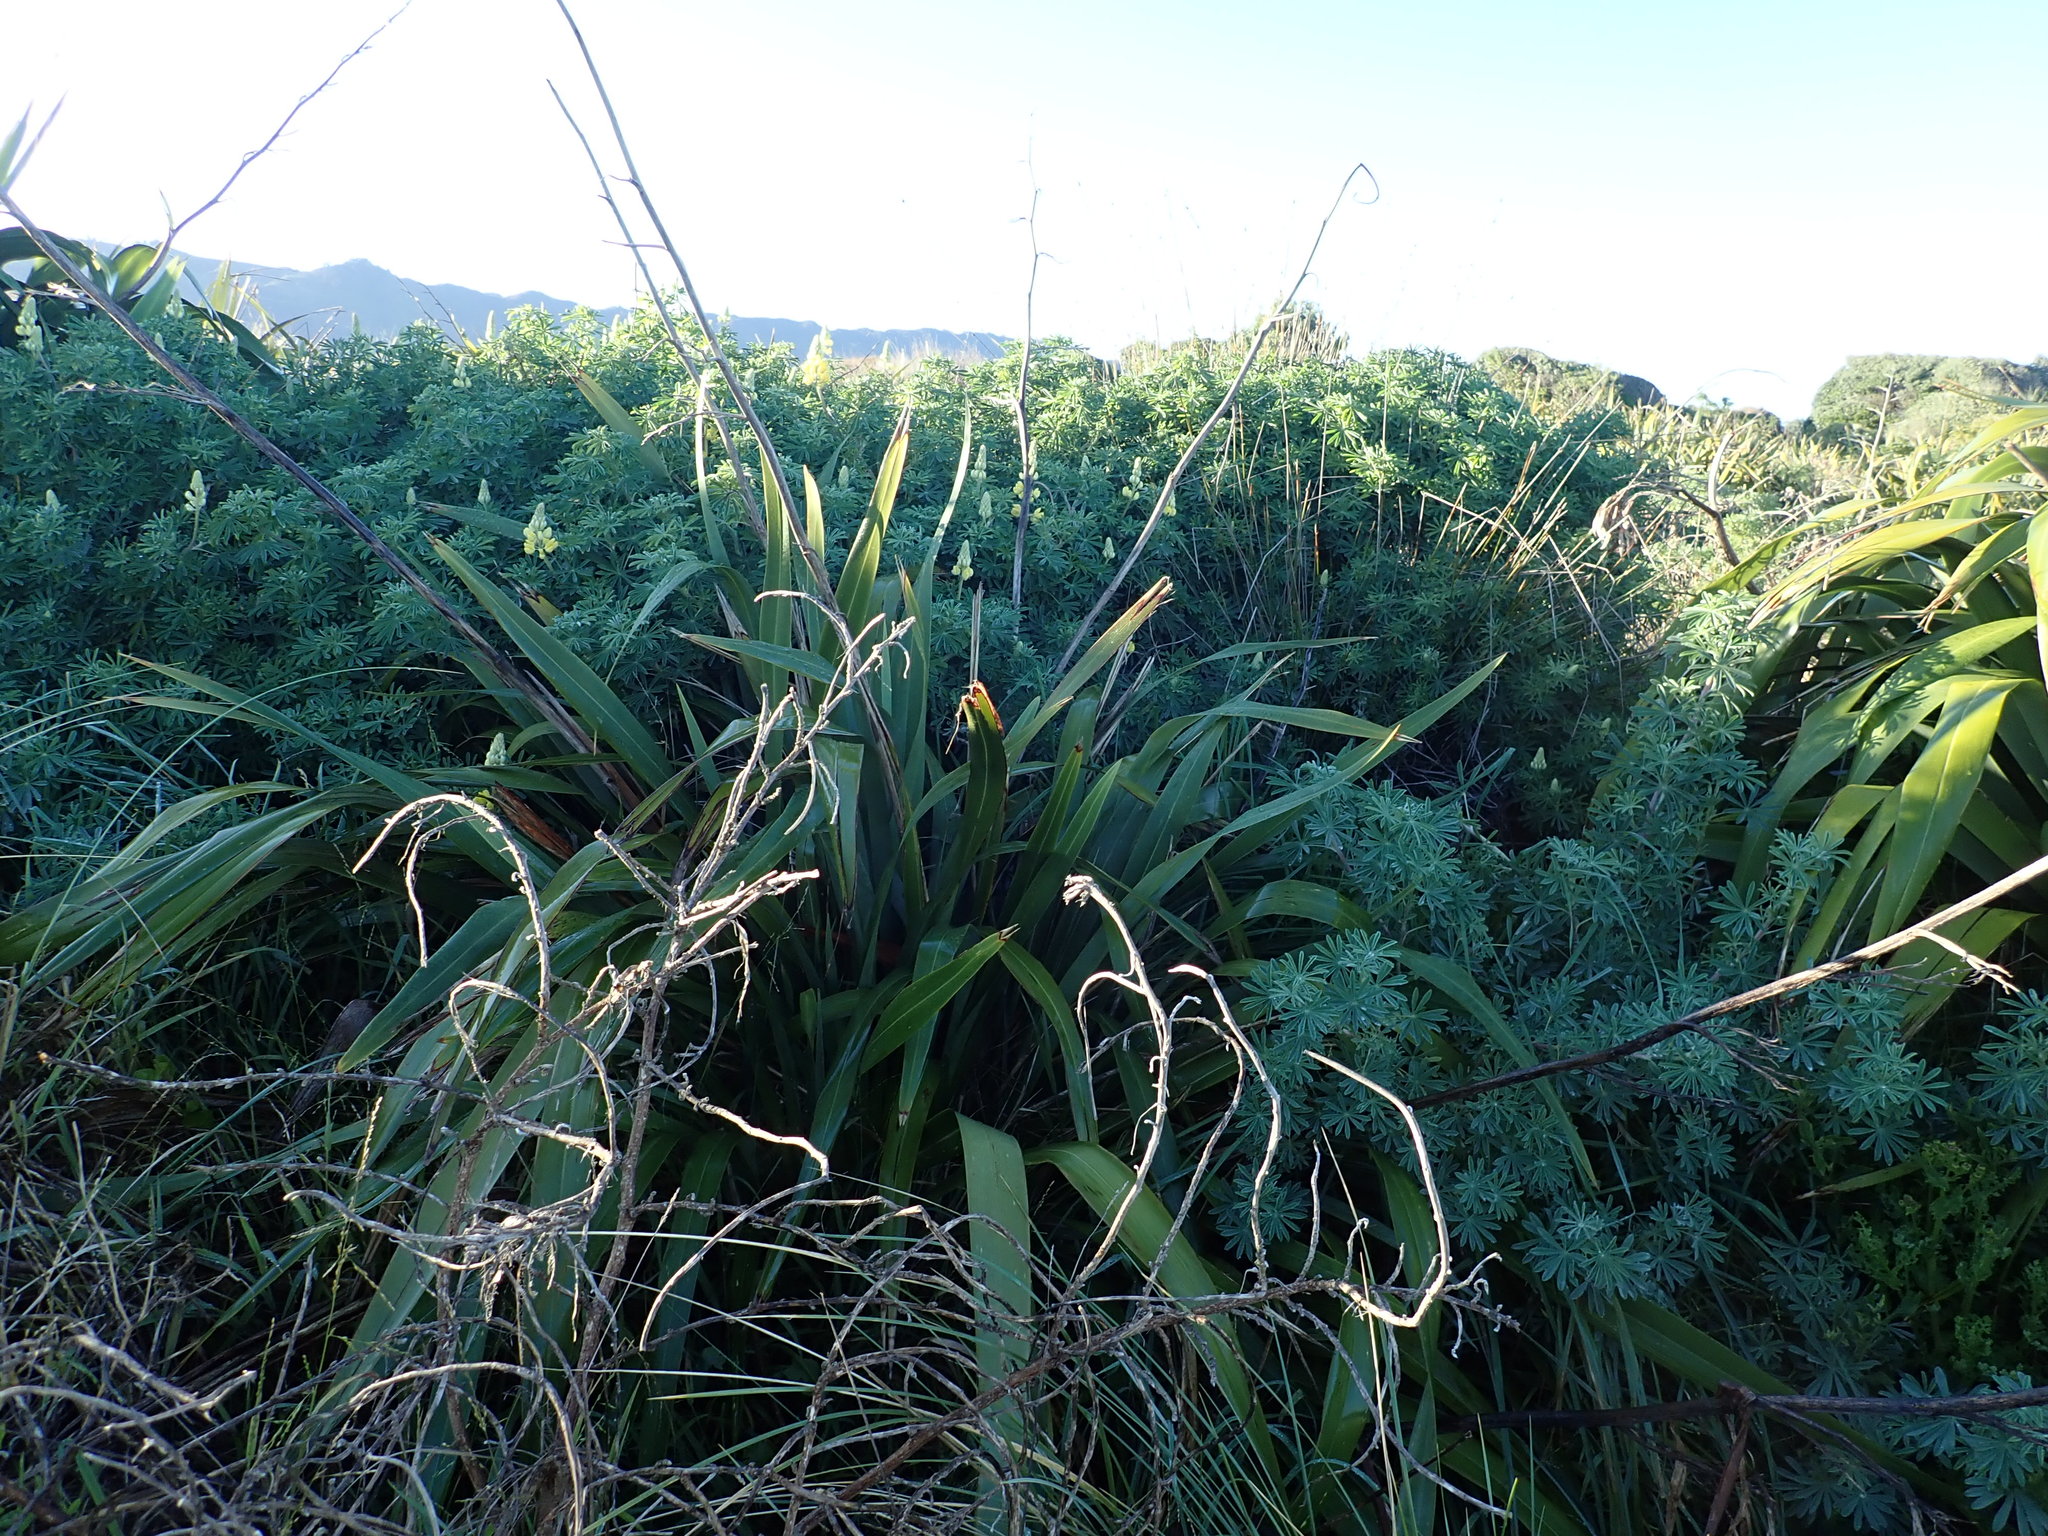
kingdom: Plantae
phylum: Tracheophyta
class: Liliopsida
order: Asparagales
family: Asphodelaceae
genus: Phormium
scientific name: Phormium tenax
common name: New zealand flax
